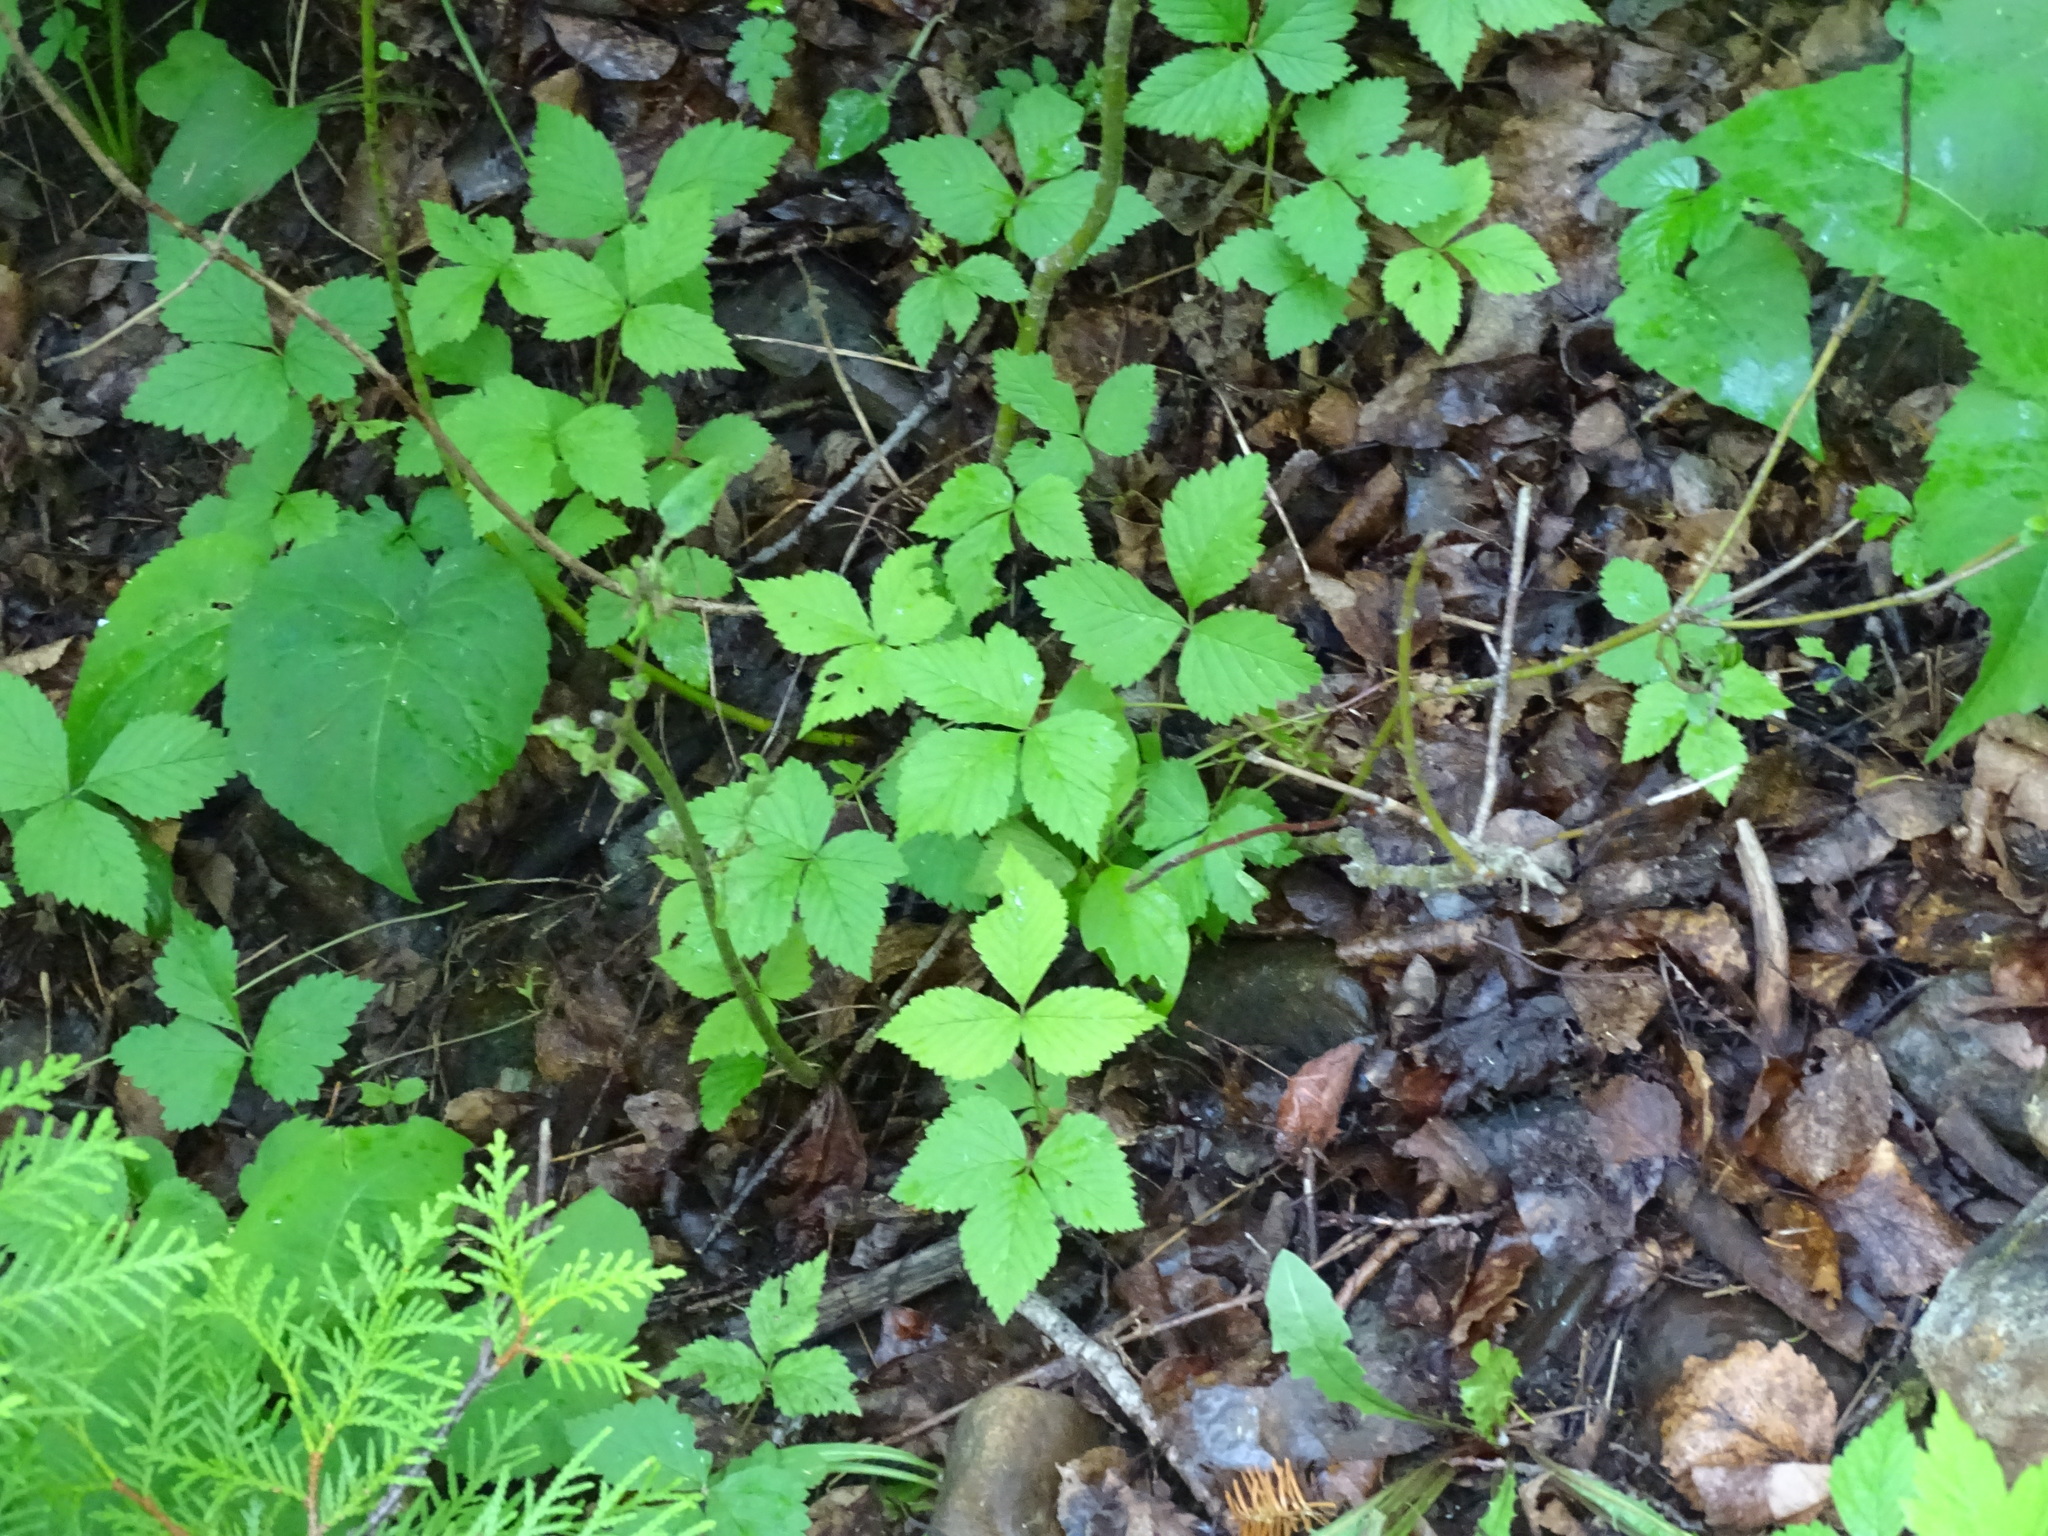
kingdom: Plantae
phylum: Tracheophyta
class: Magnoliopsida
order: Rosales
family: Rosaceae
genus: Rubus
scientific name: Rubus pubescens
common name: Dwarf raspberry
